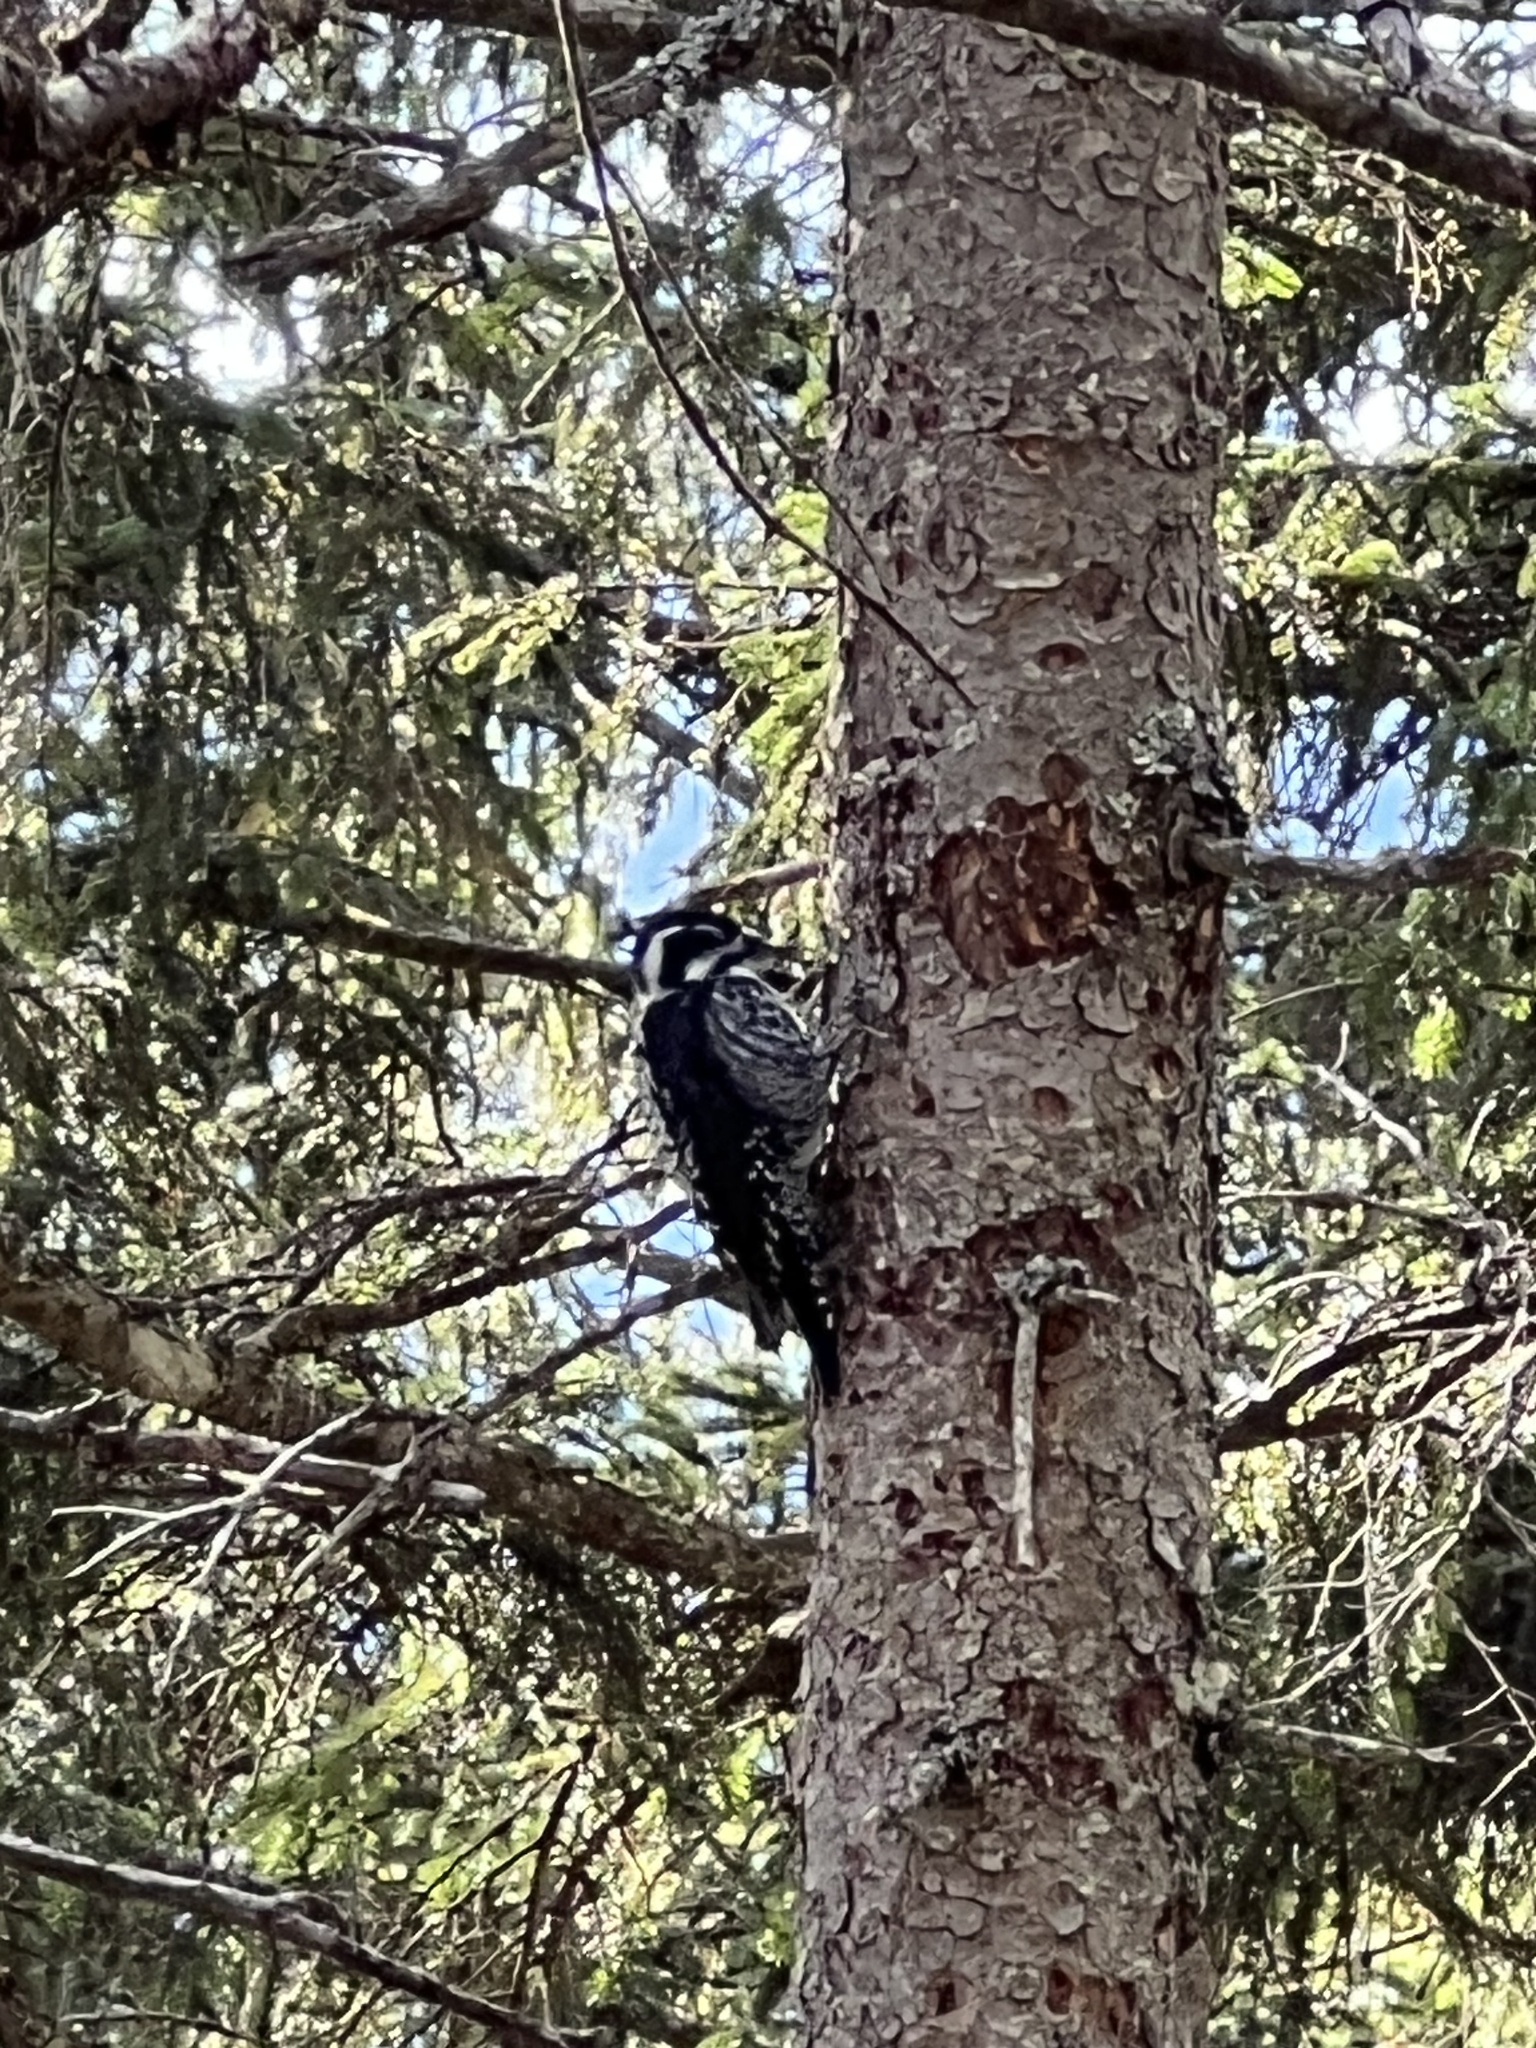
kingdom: Animalia
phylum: Chordata
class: Aves
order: Piciformes
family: Picidae
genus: Picoides
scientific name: Picoides tridactylus
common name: Eurasian three-toed woodpecker
